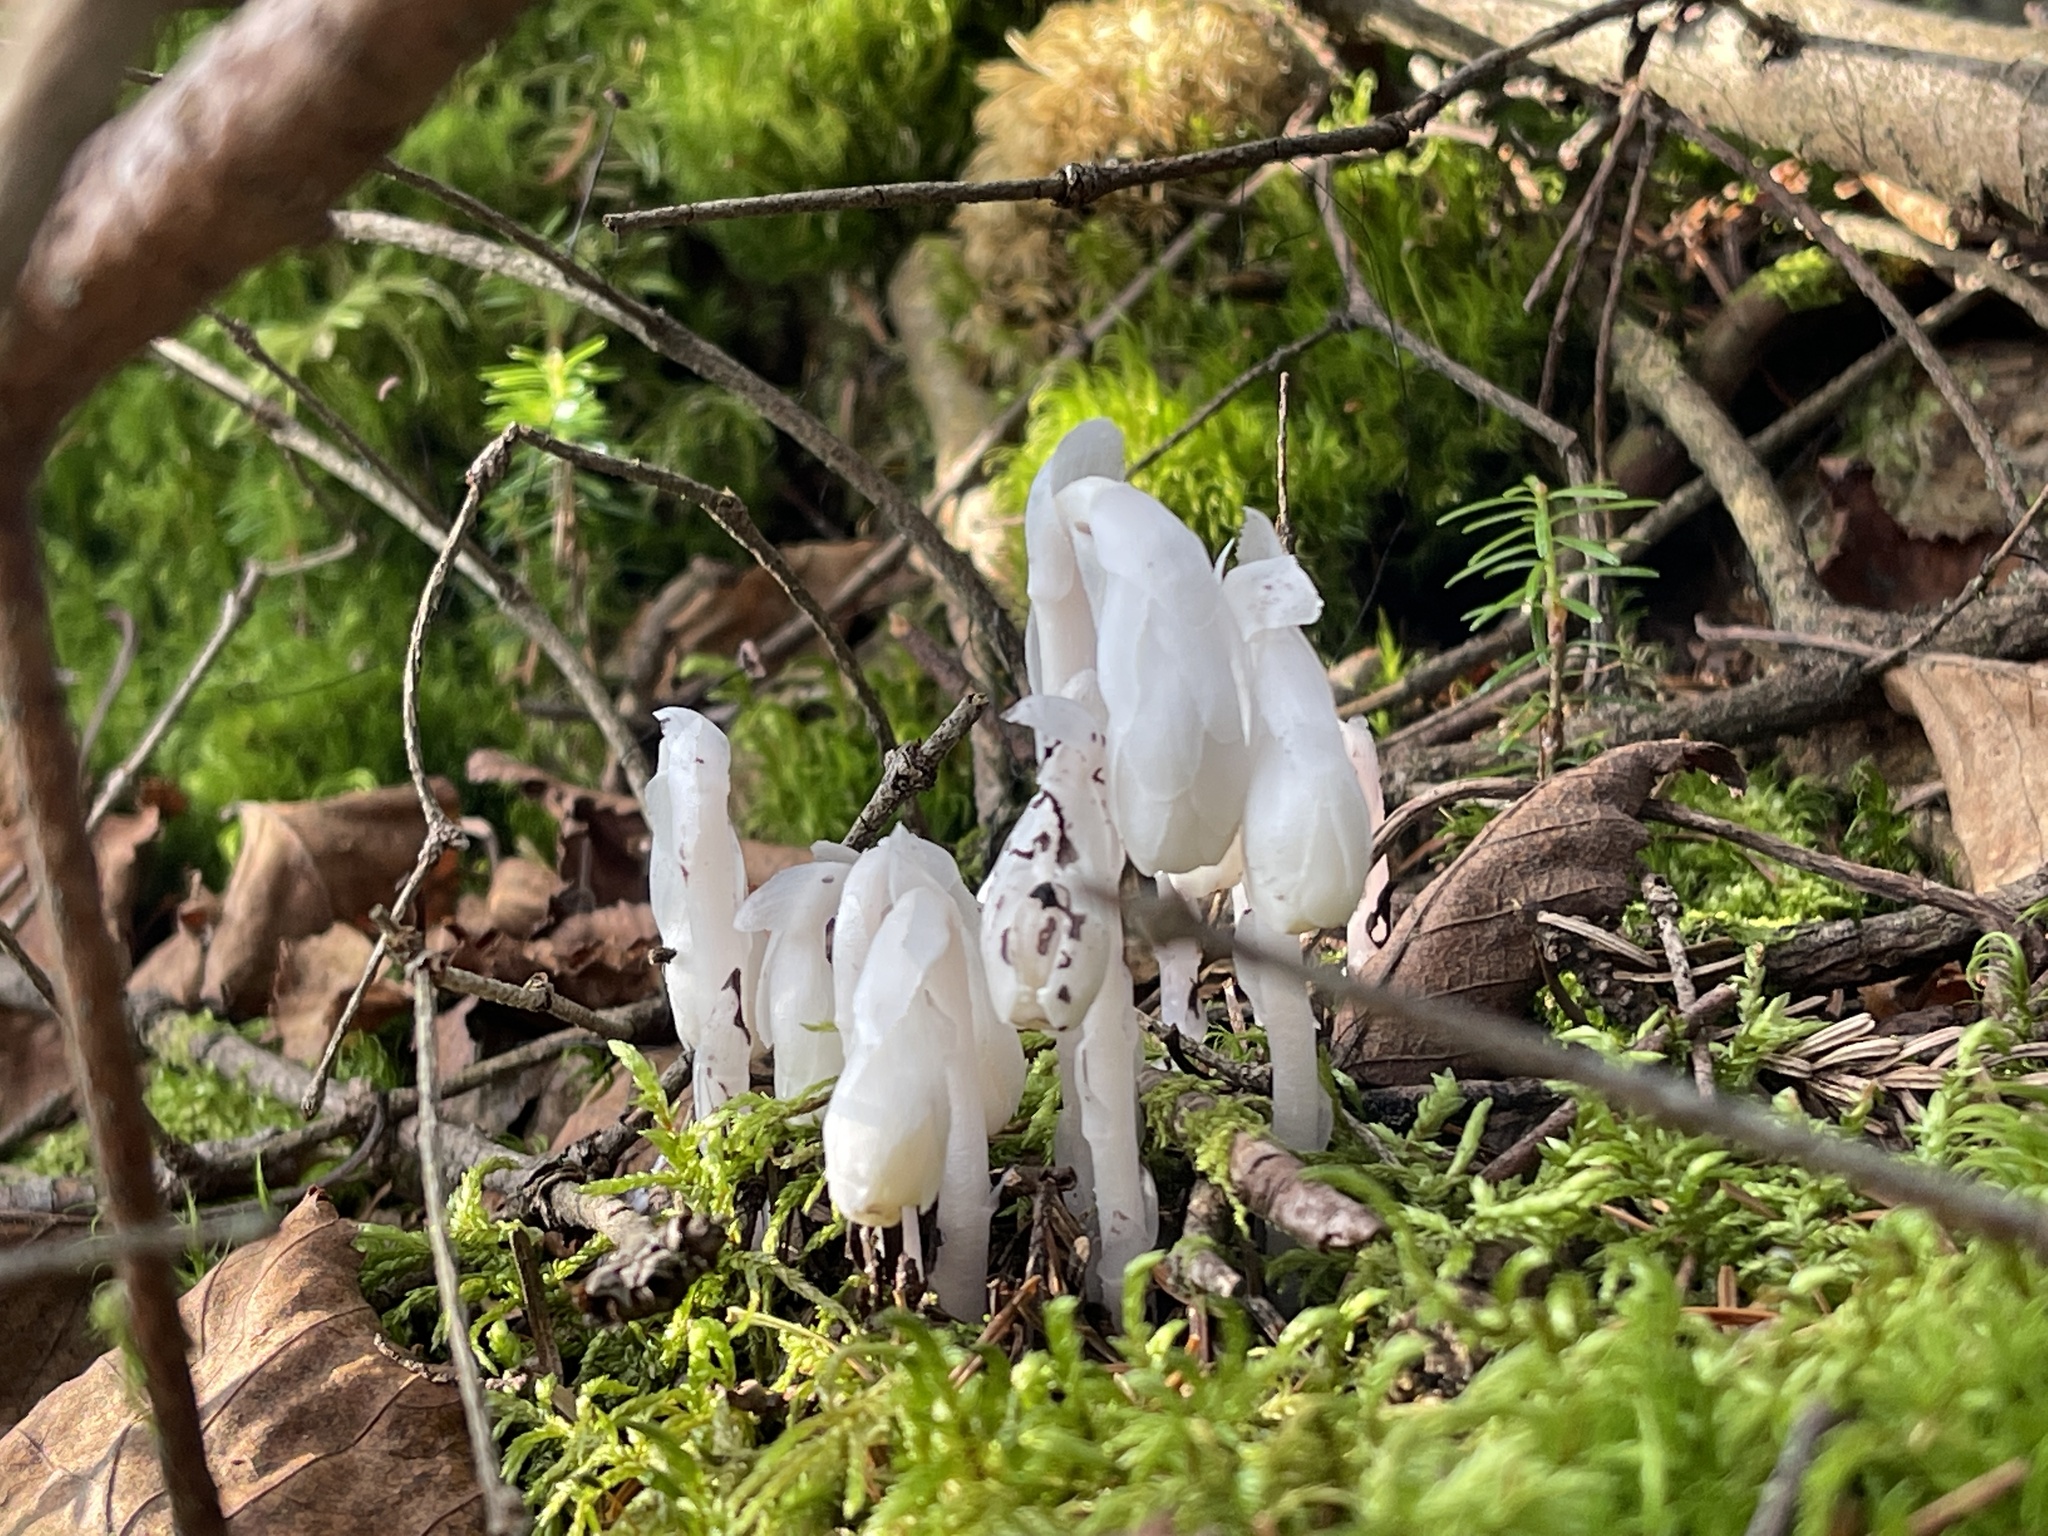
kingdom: Plantae
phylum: Tracheophyta
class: Magnoliopsida
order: Ericales
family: Ericaceae
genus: Monotropa
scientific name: Monotropa uniflora
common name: Convulsion root
